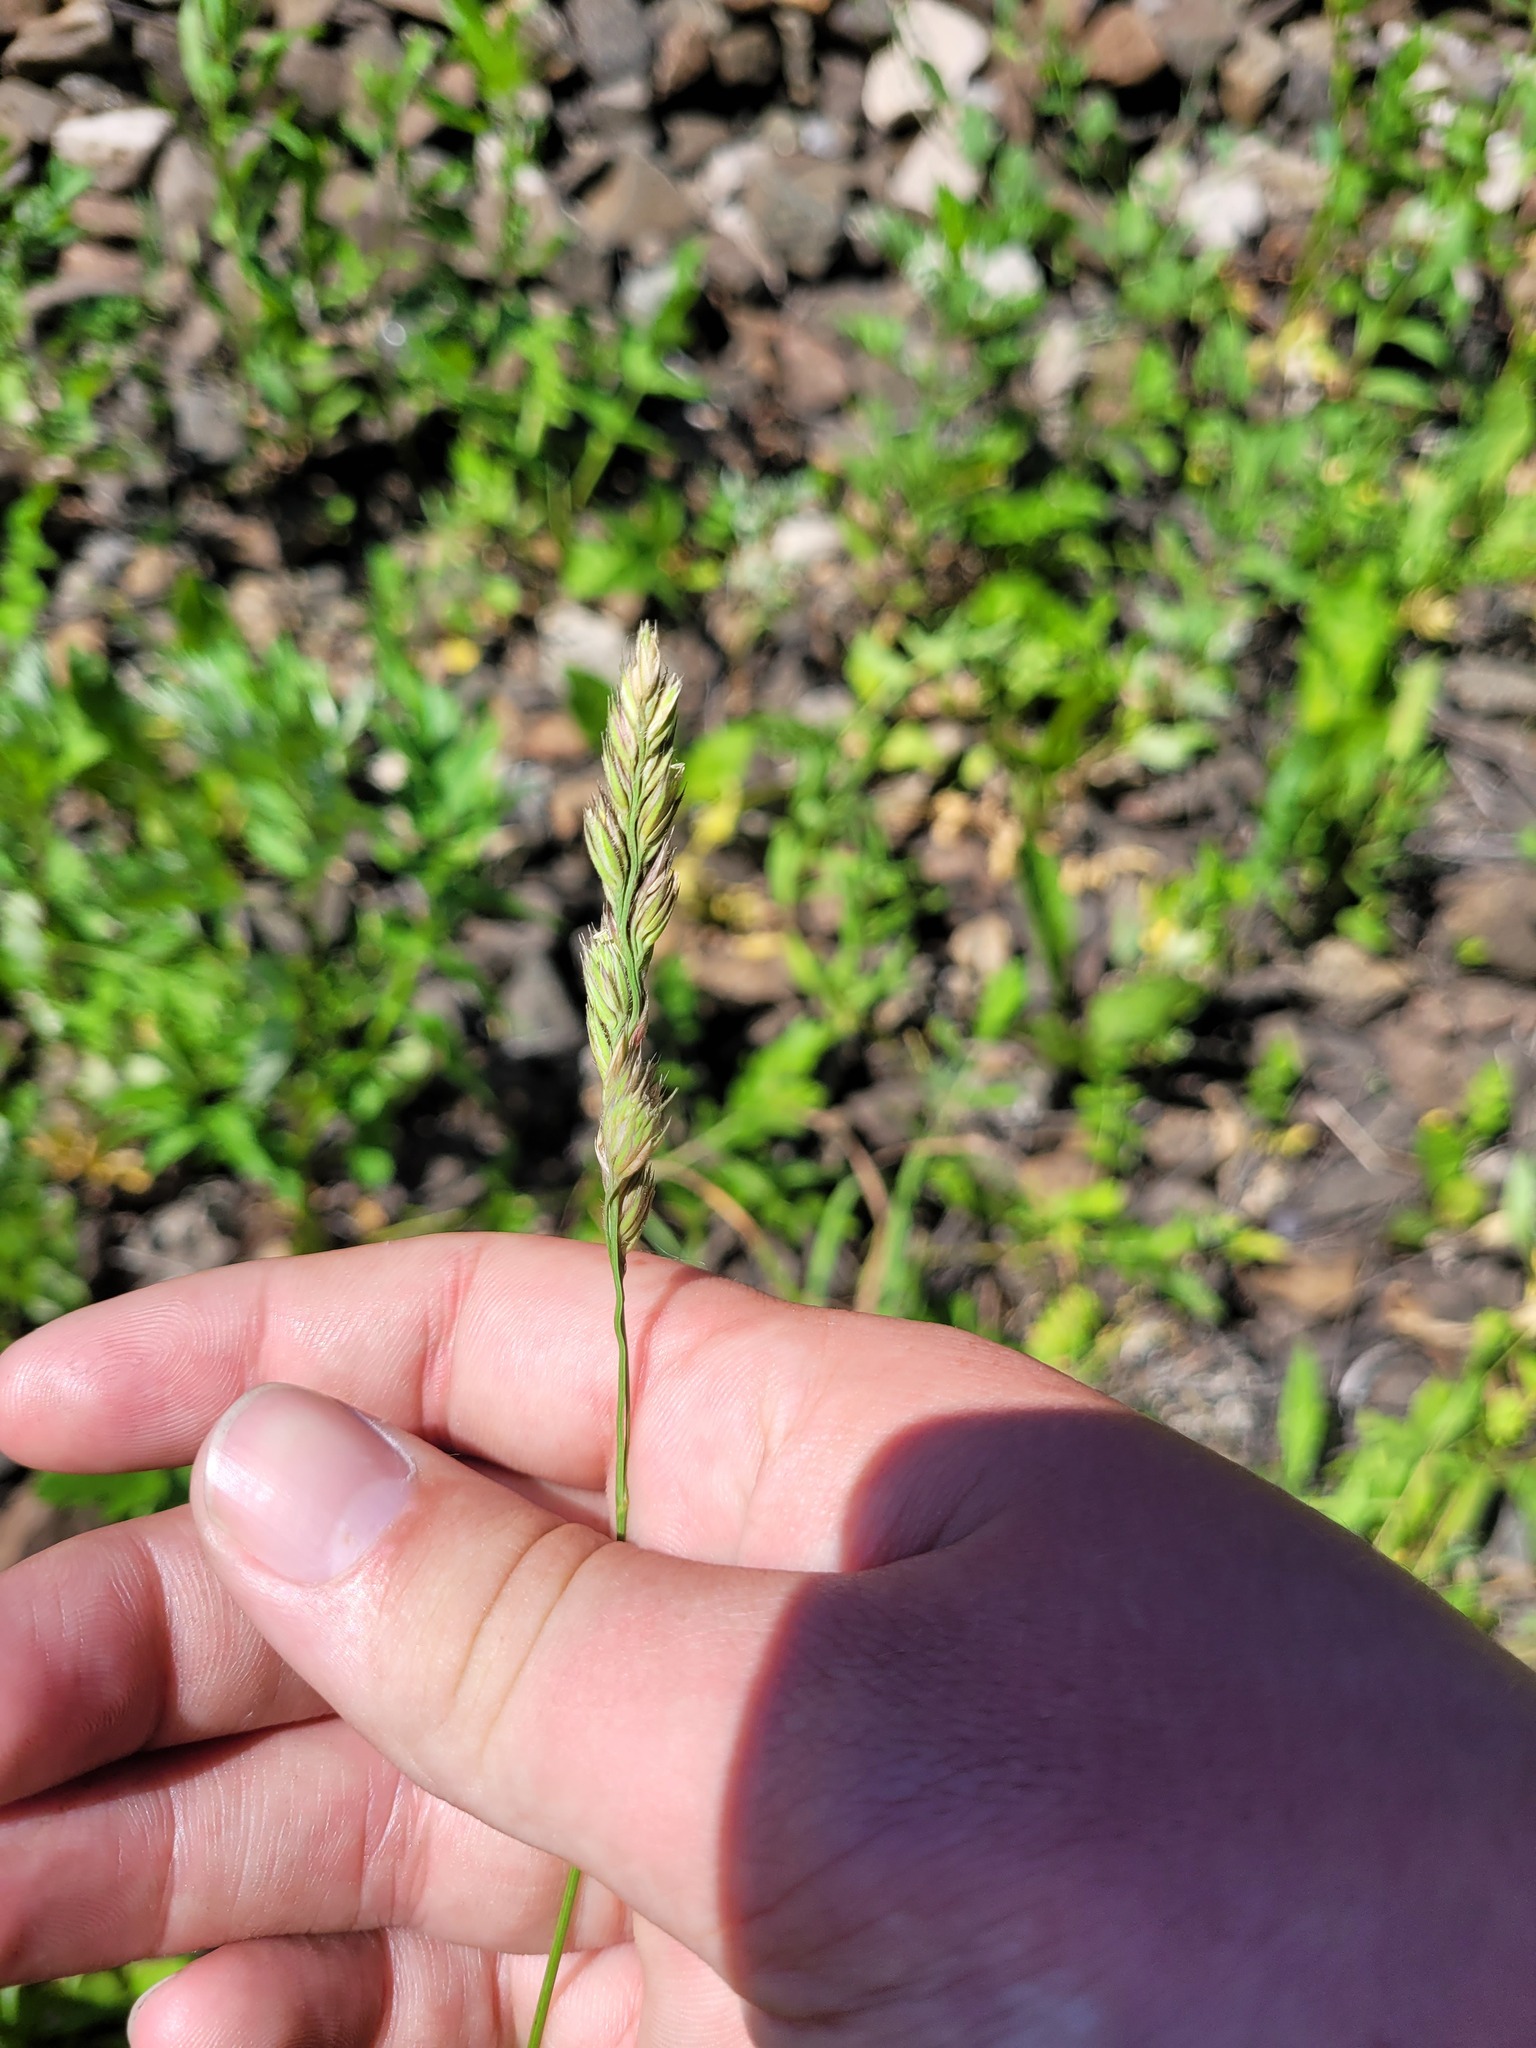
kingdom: Plantae
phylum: Tracheophyta
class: Liliopsida
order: Poales
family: Poaceae
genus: Dactylis
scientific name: Dactylis glomerata
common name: Orchardgrass
